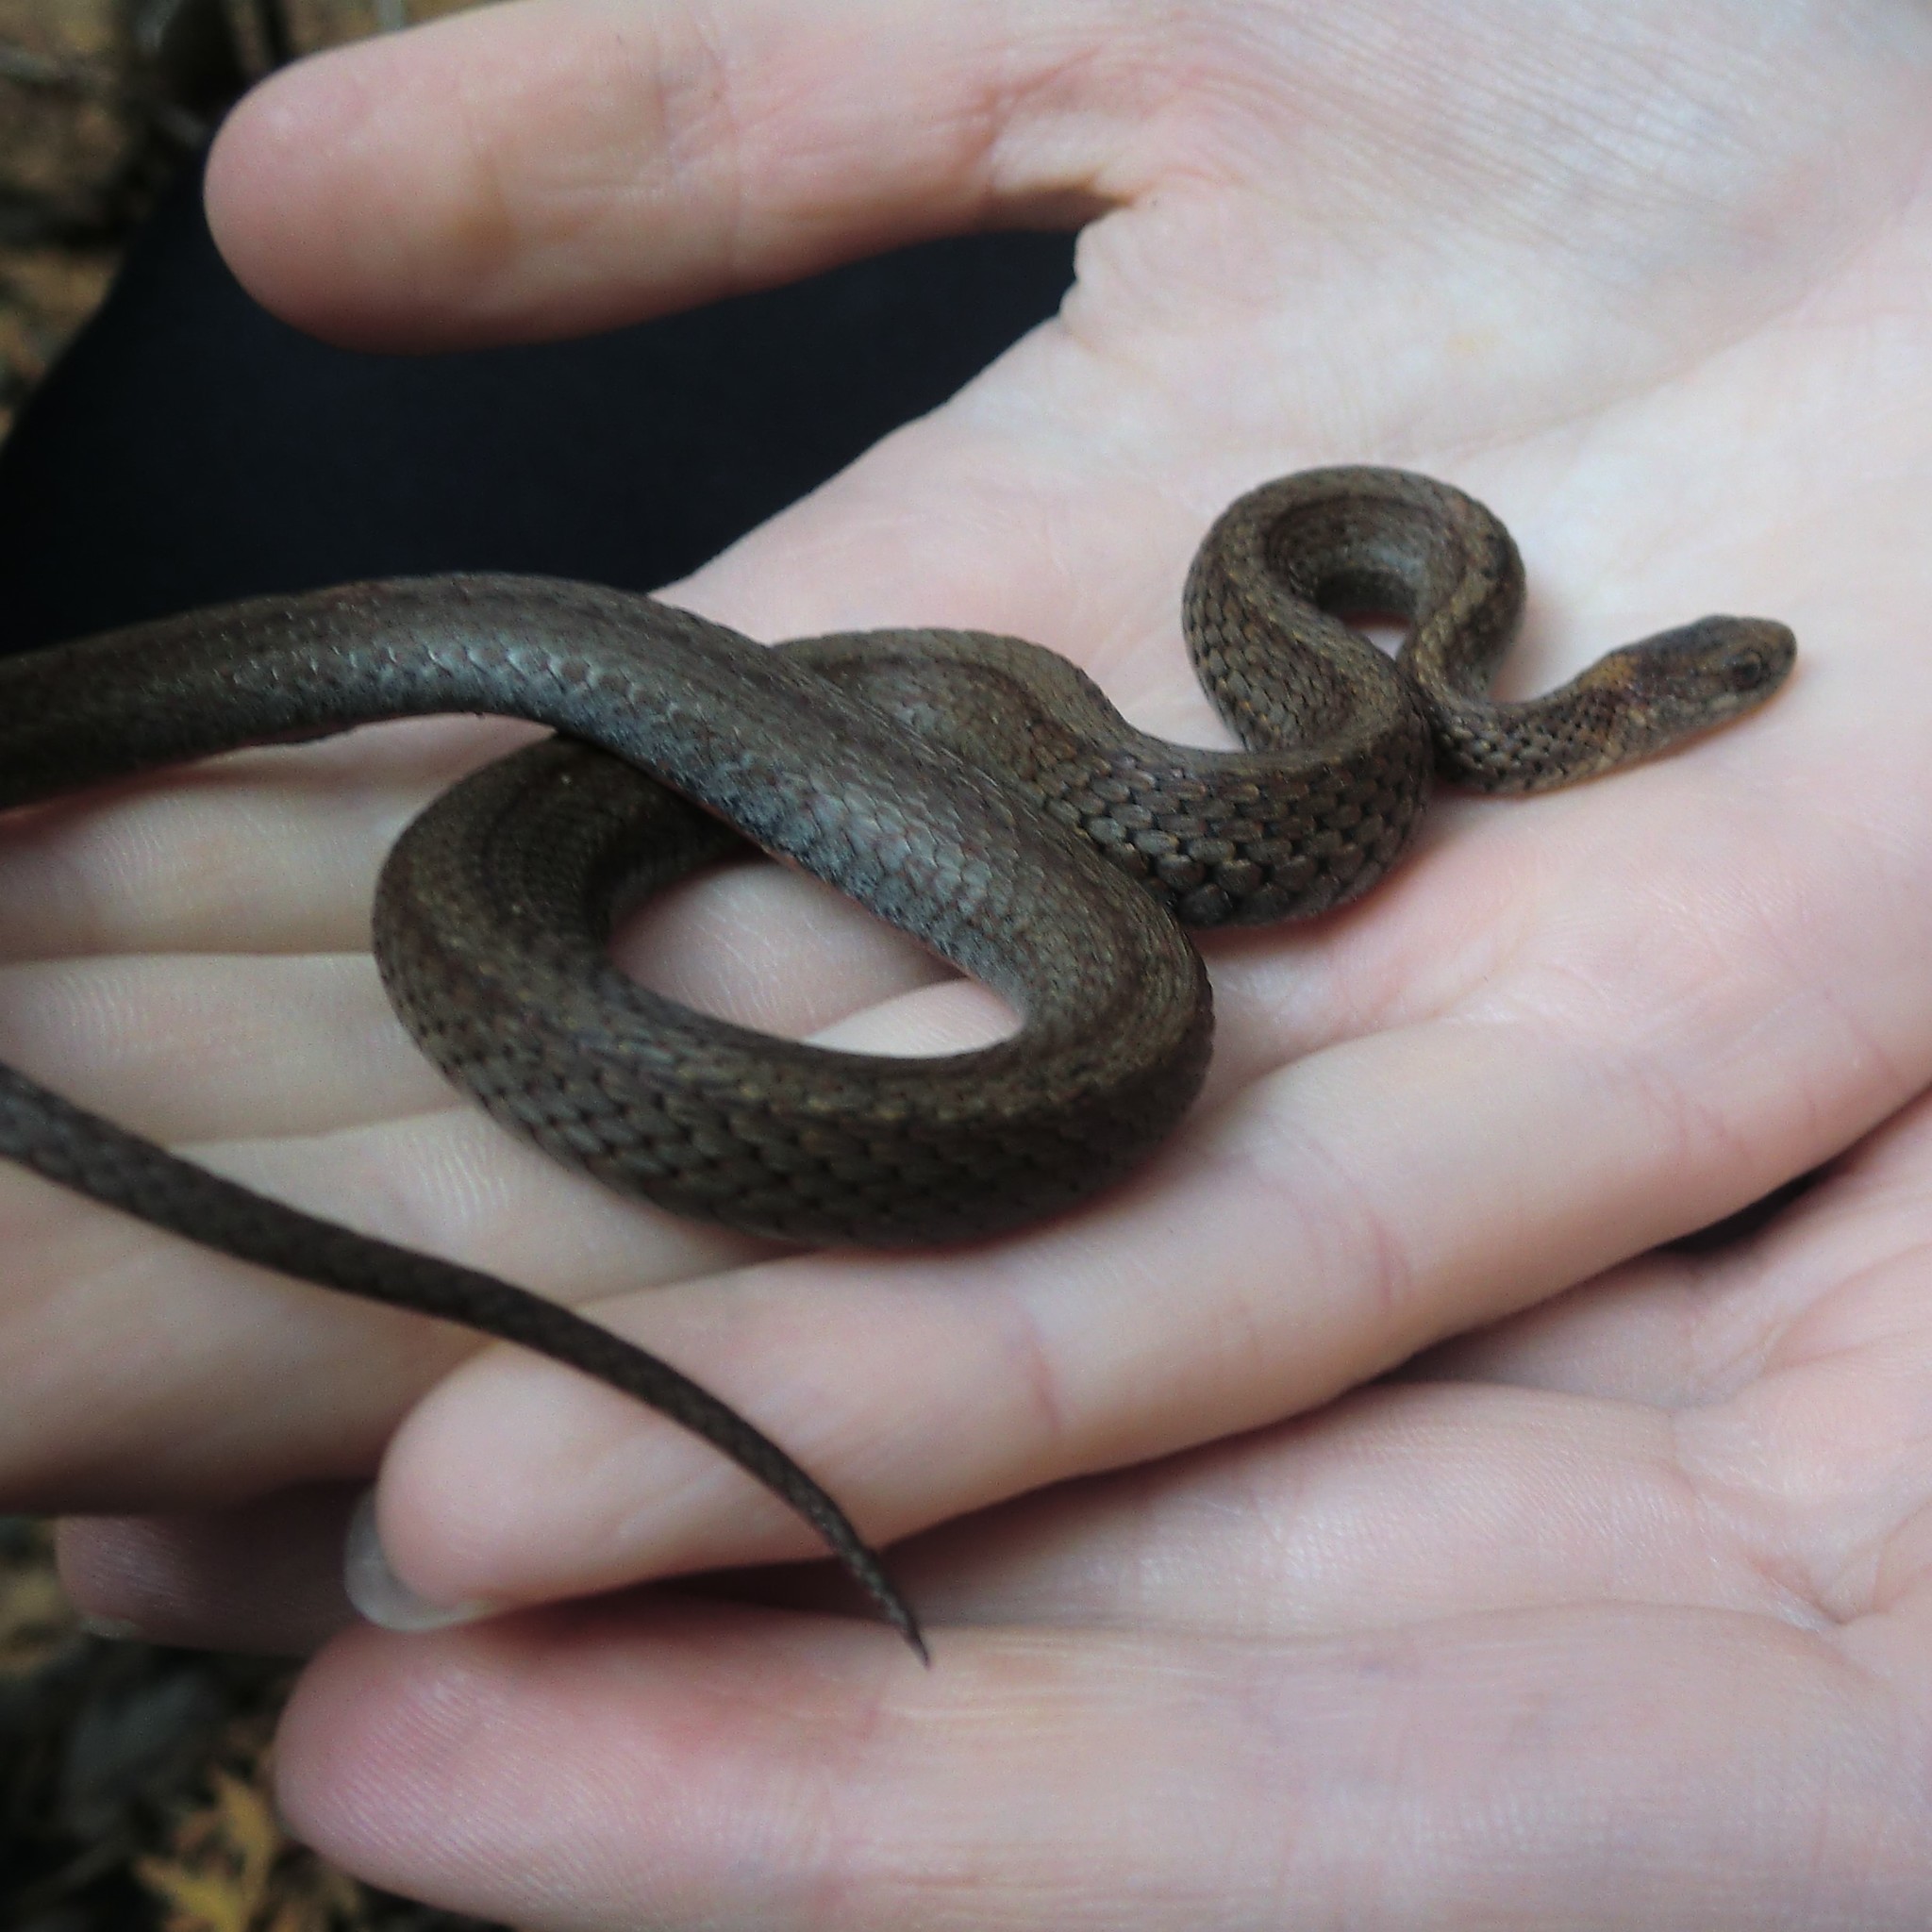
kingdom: Animalia
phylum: Chordata
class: Squamata
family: Colubridae
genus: Storeria
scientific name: Storeria occipitomaculata
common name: Redbelly snake
